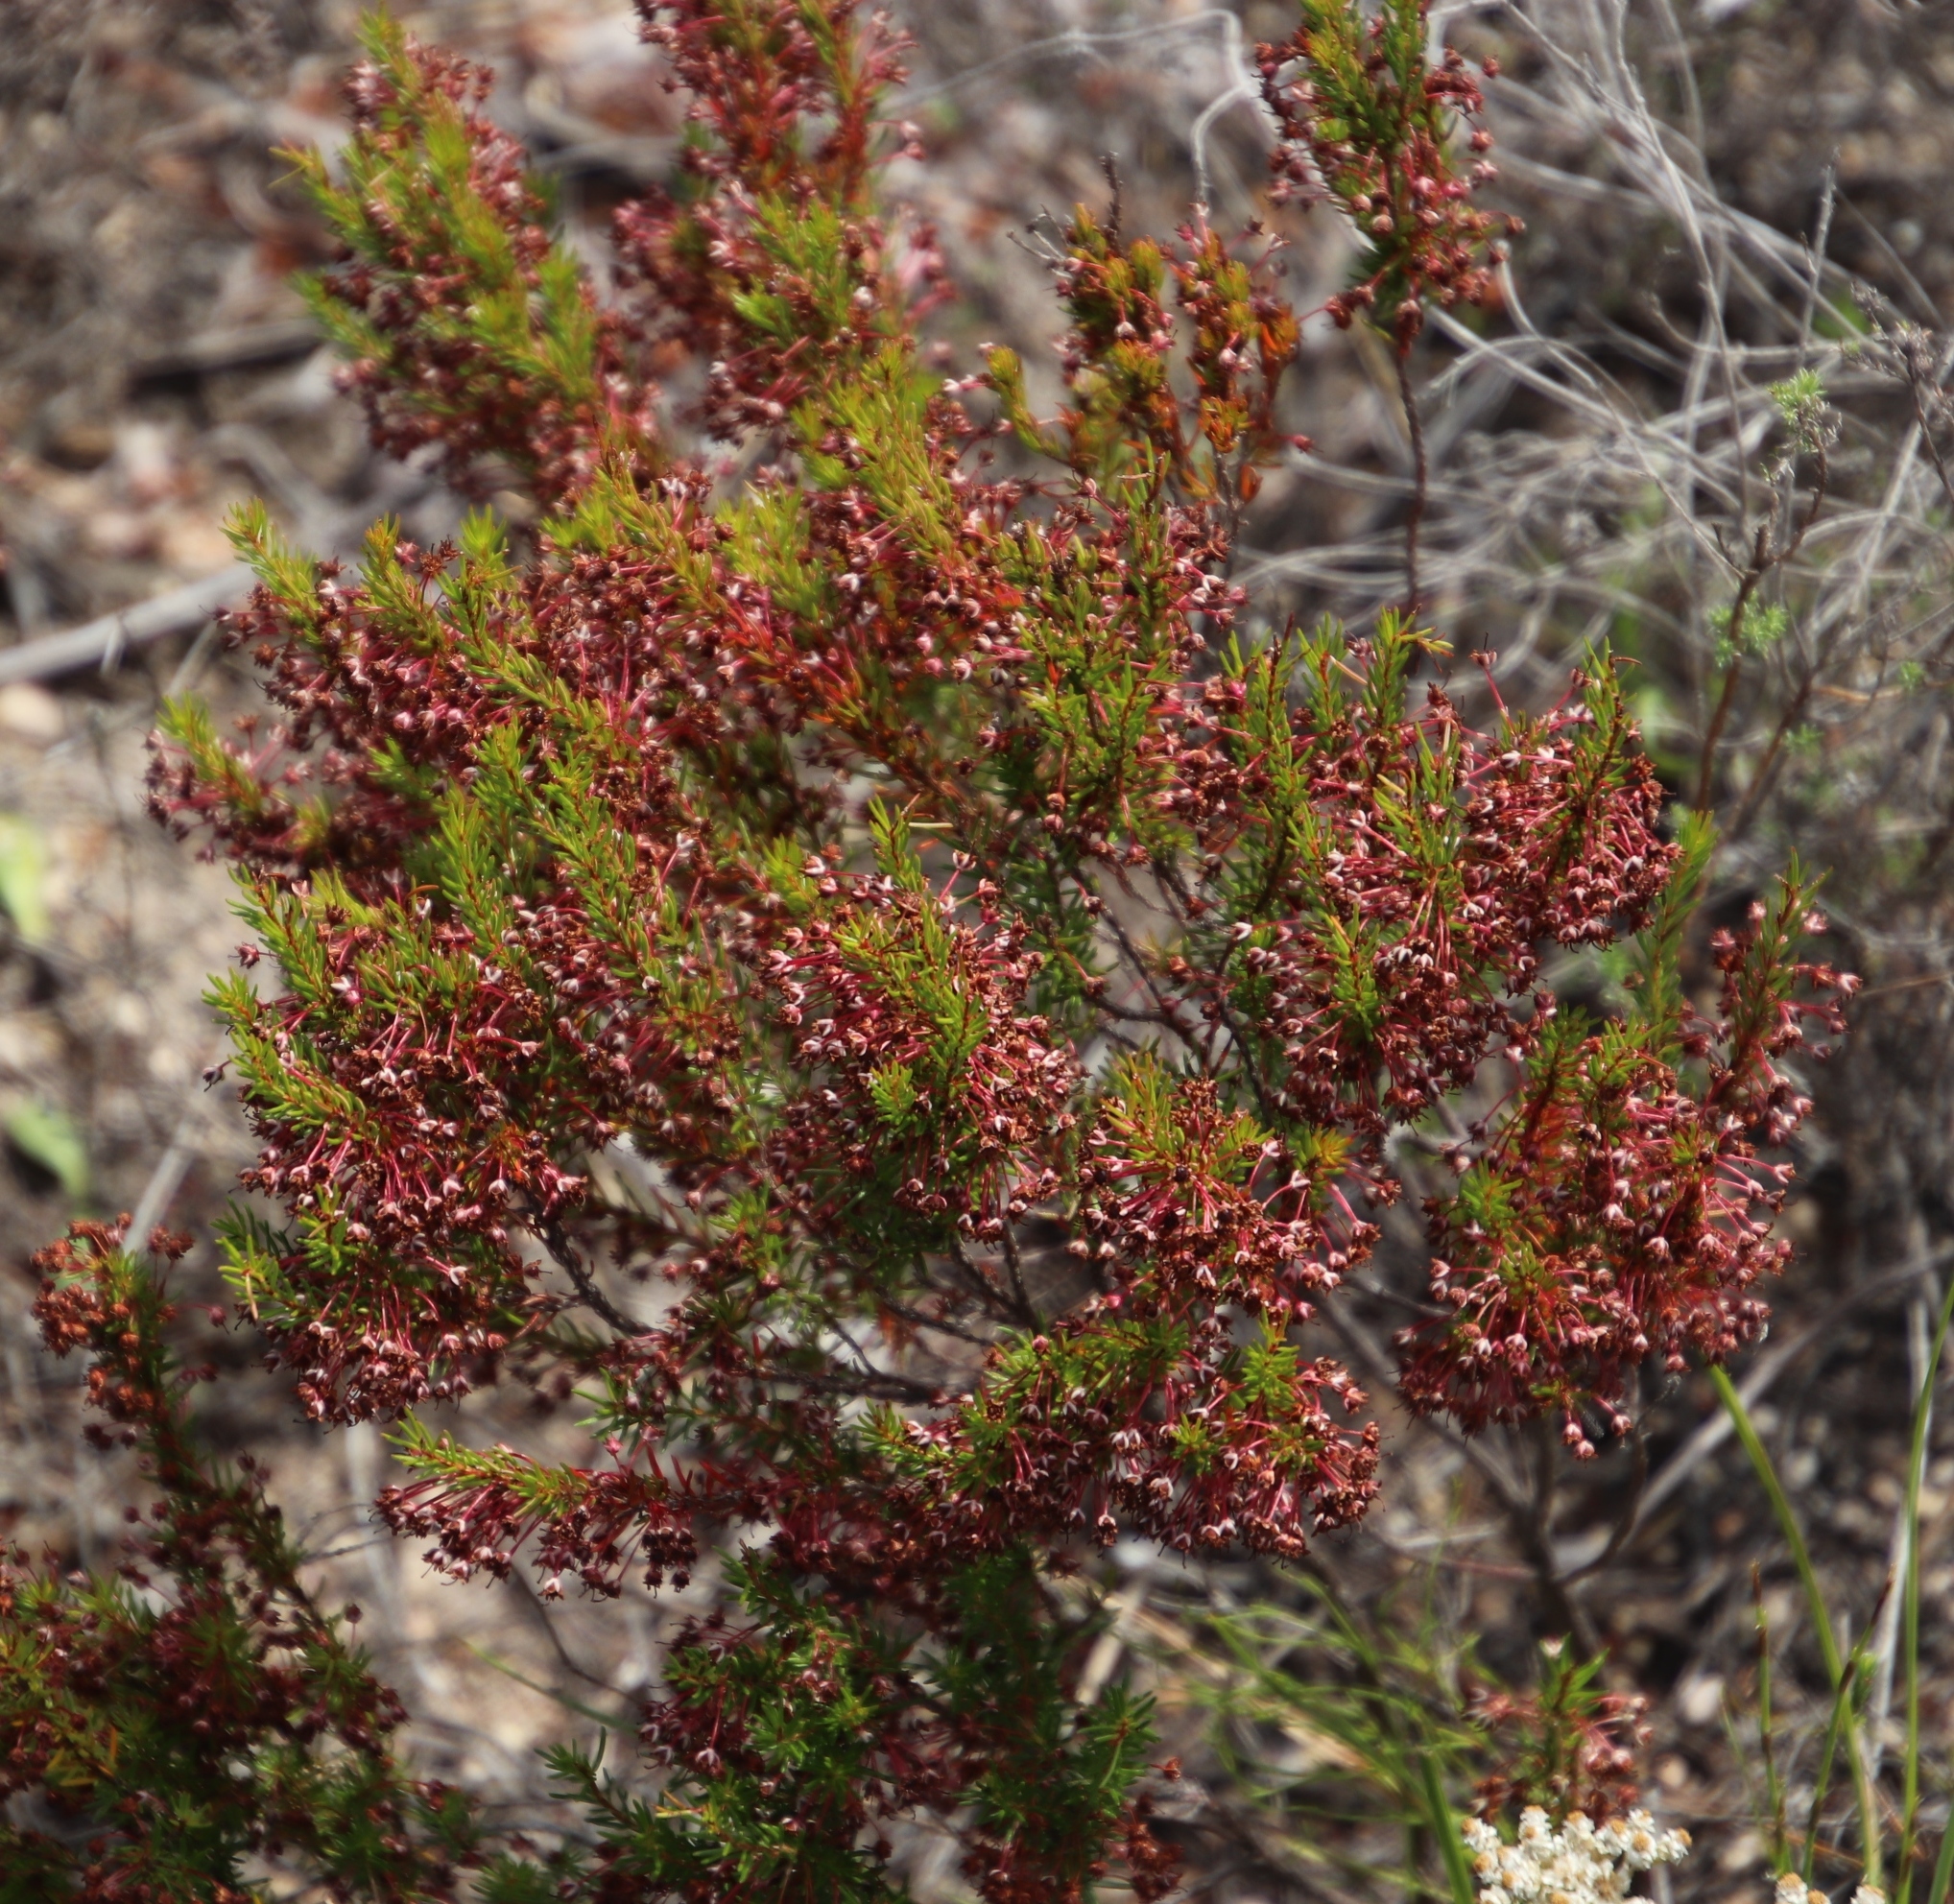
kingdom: Plantae
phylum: Tracheophyta
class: Magnoliopsida
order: Ericales
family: Ericaceae
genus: Erica
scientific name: Erica rubiginosa
